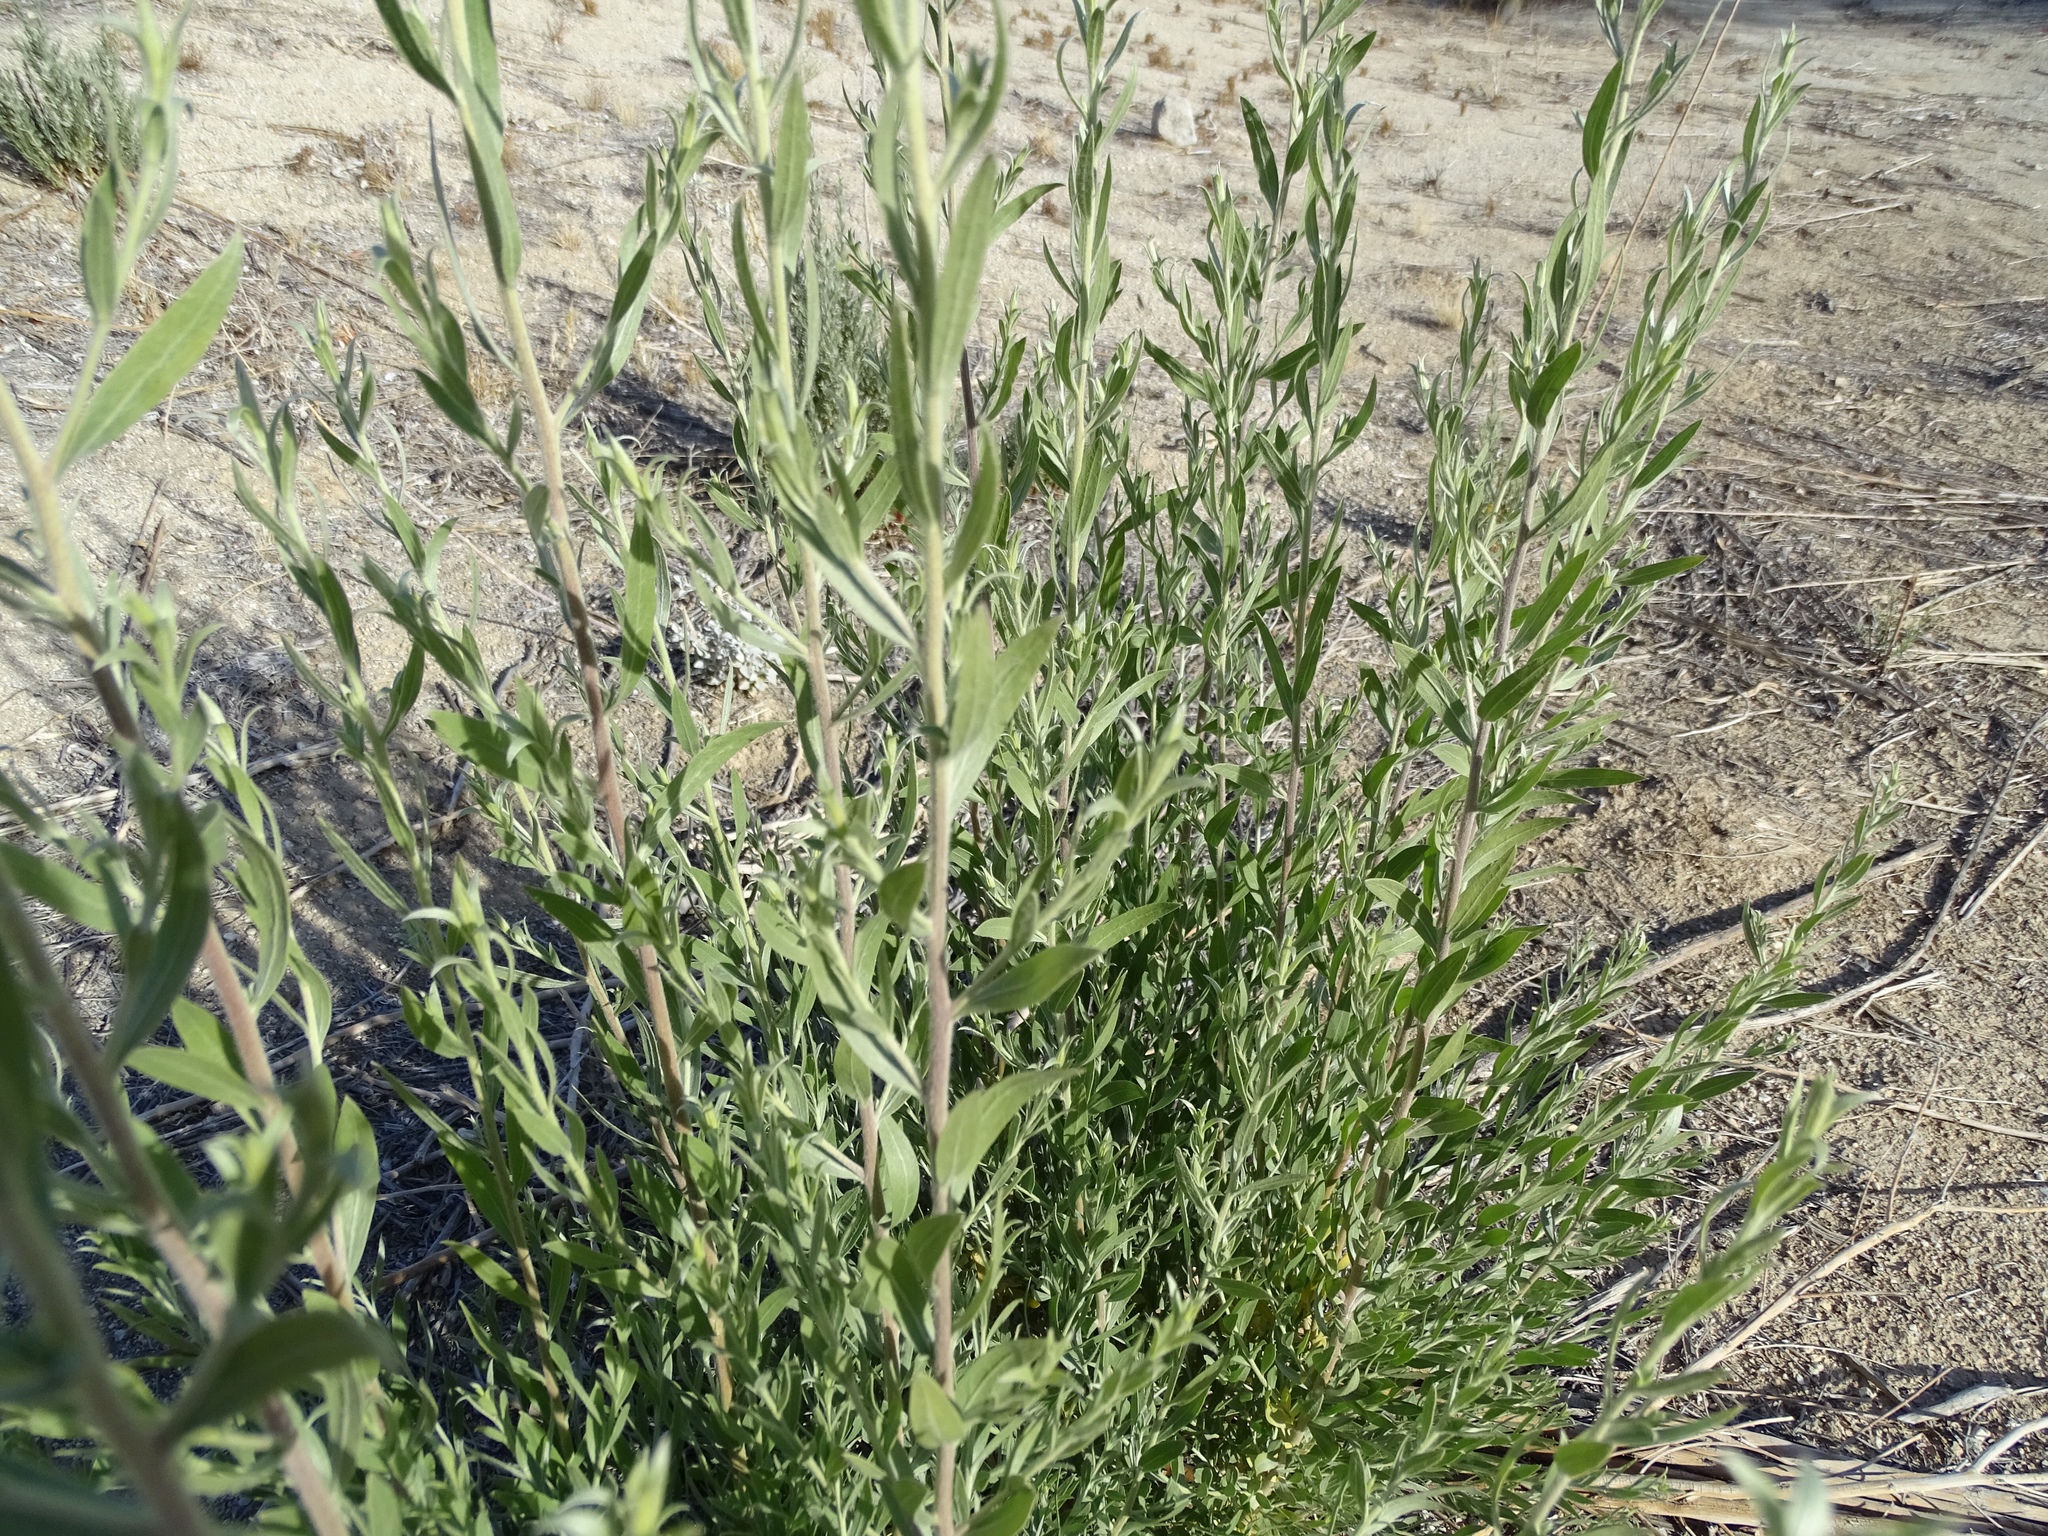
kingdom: Plantae
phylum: Tracheophyta
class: Magnoliopsida
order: Asterales
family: Asteraceae
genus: Pluchea
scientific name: Pluchea sericea
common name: Arrow-weed
